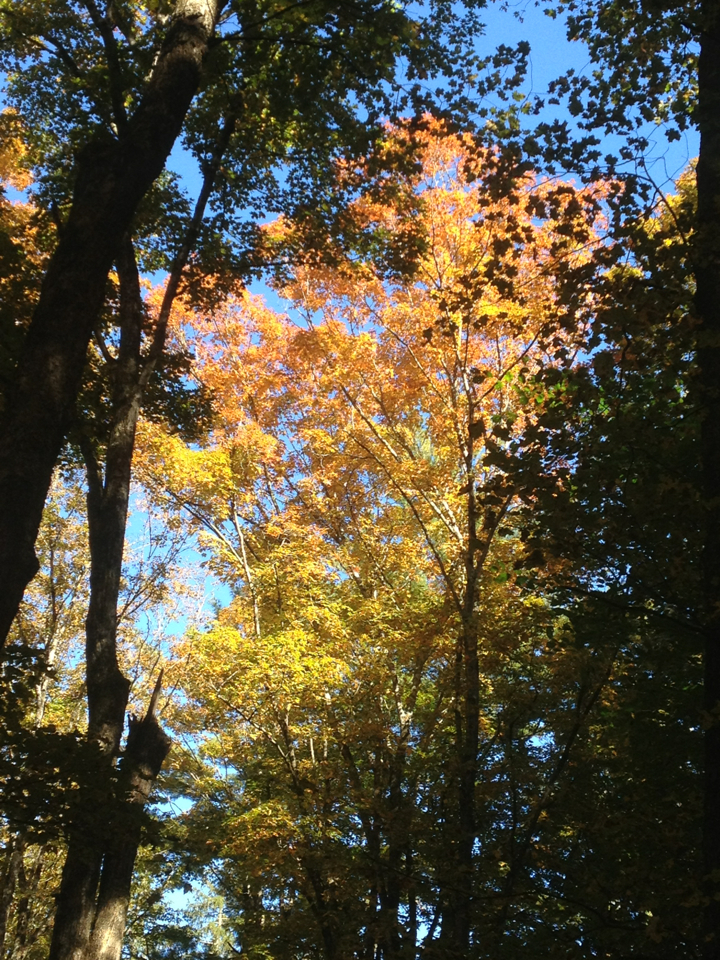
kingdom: Plantae
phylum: Tracheophyta
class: Magnoliopsida
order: Sapindales
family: Sapindaceae
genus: Acer
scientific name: Acer saccharum
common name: Sugar maple
